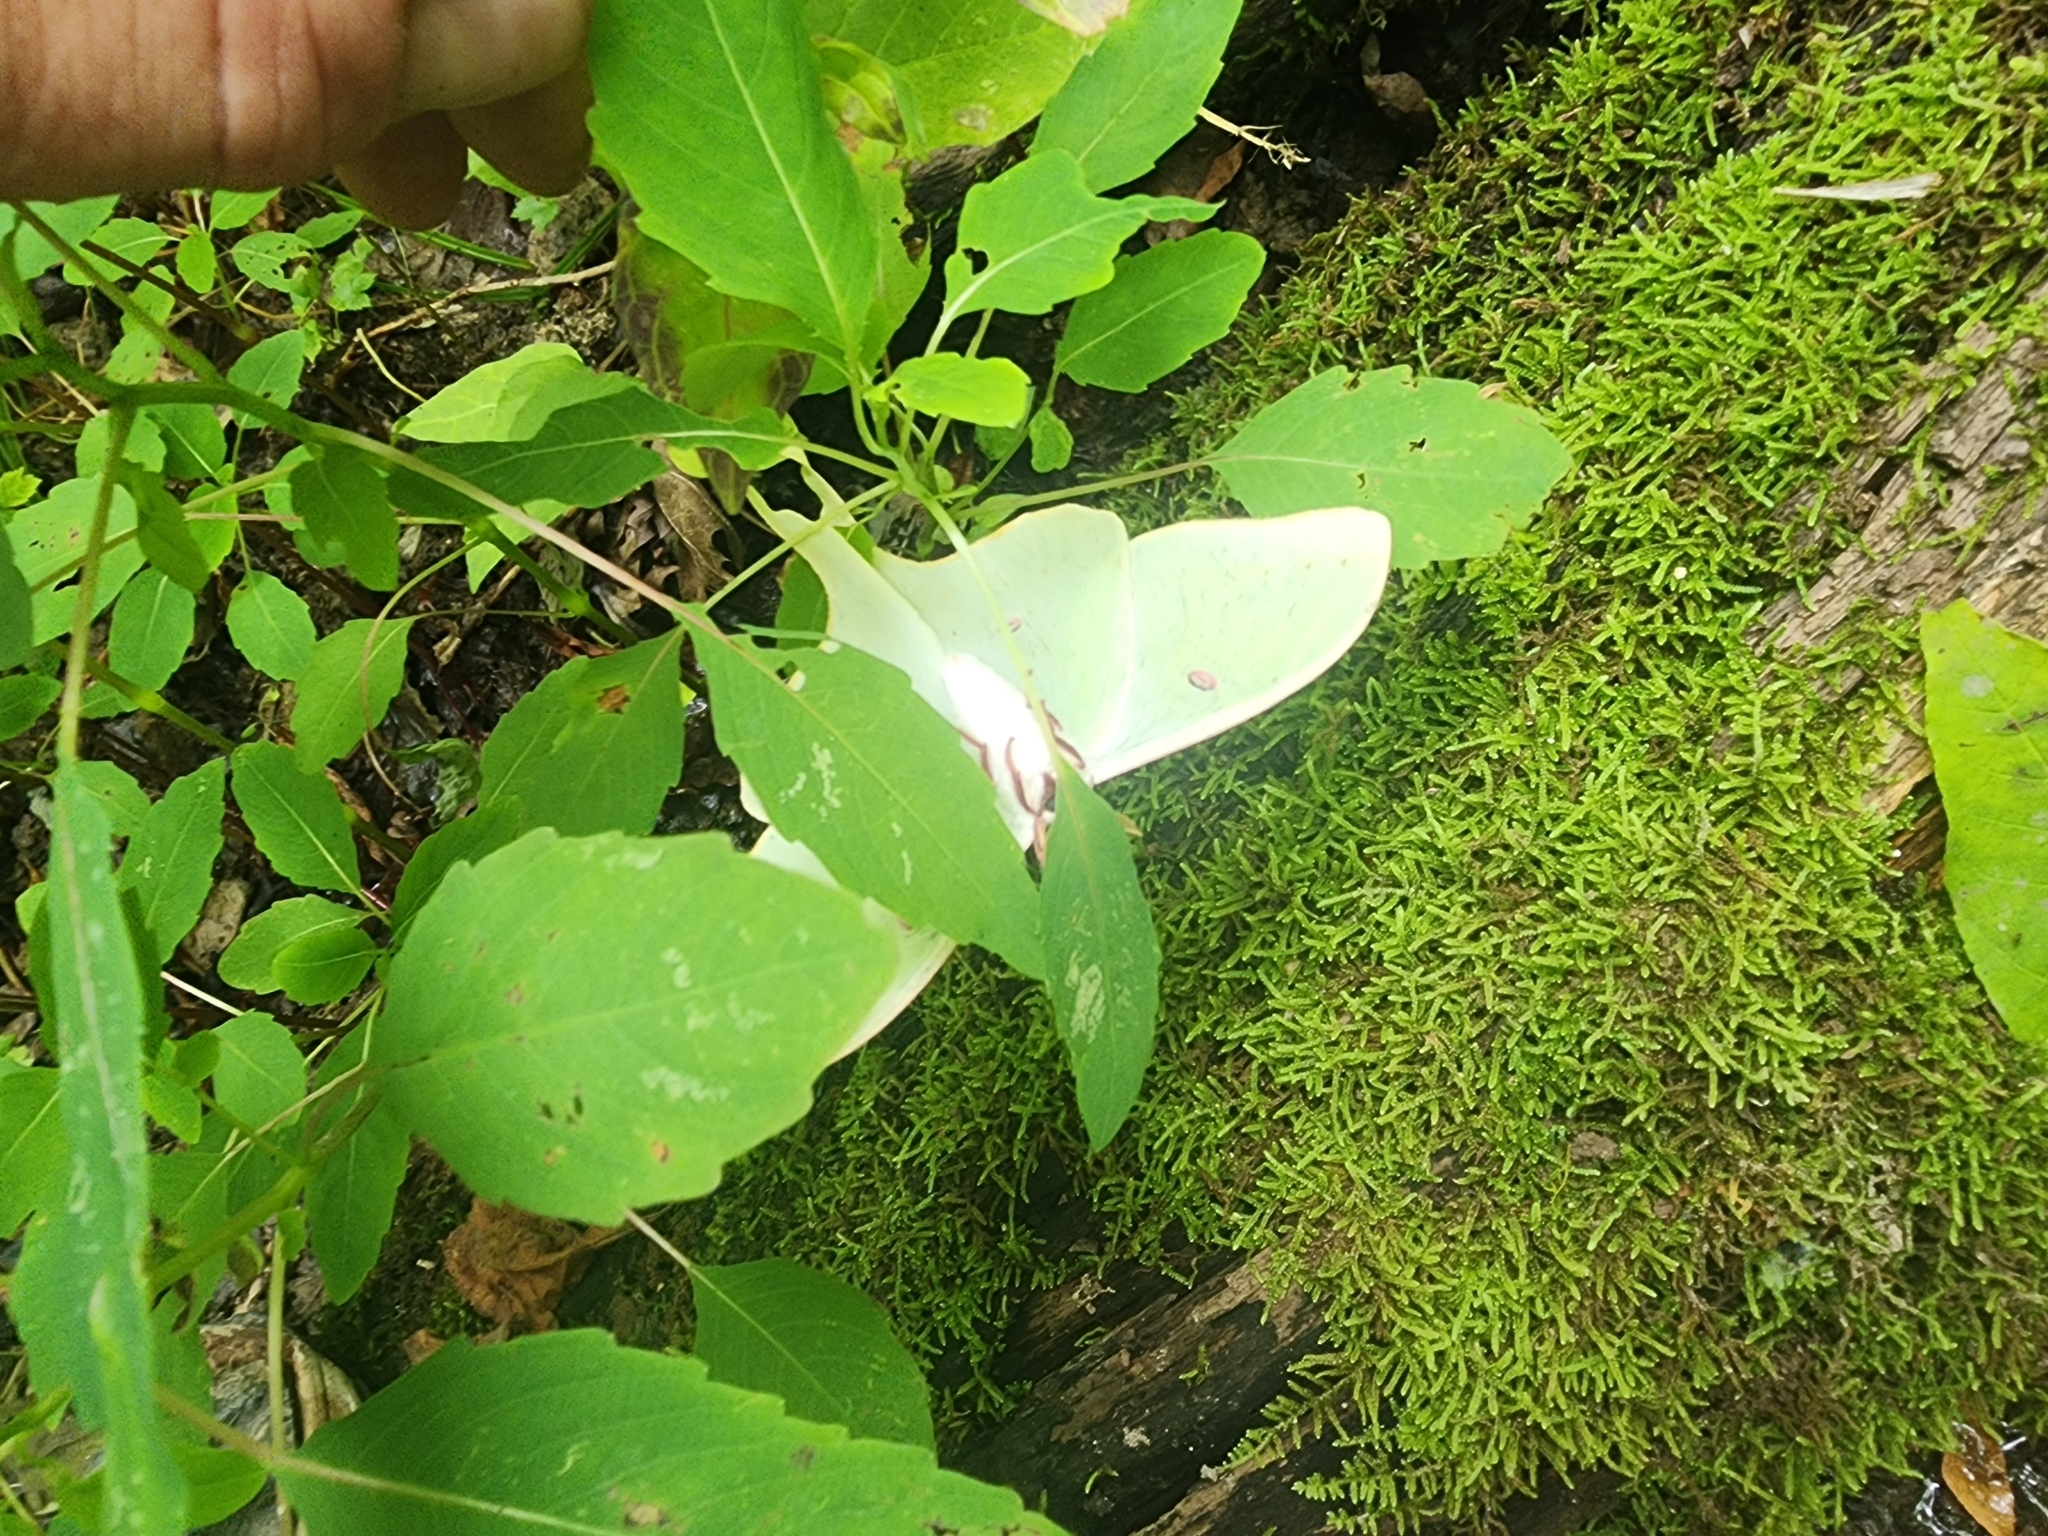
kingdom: Animalia
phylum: Arthropoda
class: Insecta
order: Lepidoptera
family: Saturniidae
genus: Actias
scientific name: Actias luna
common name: Luna moth
